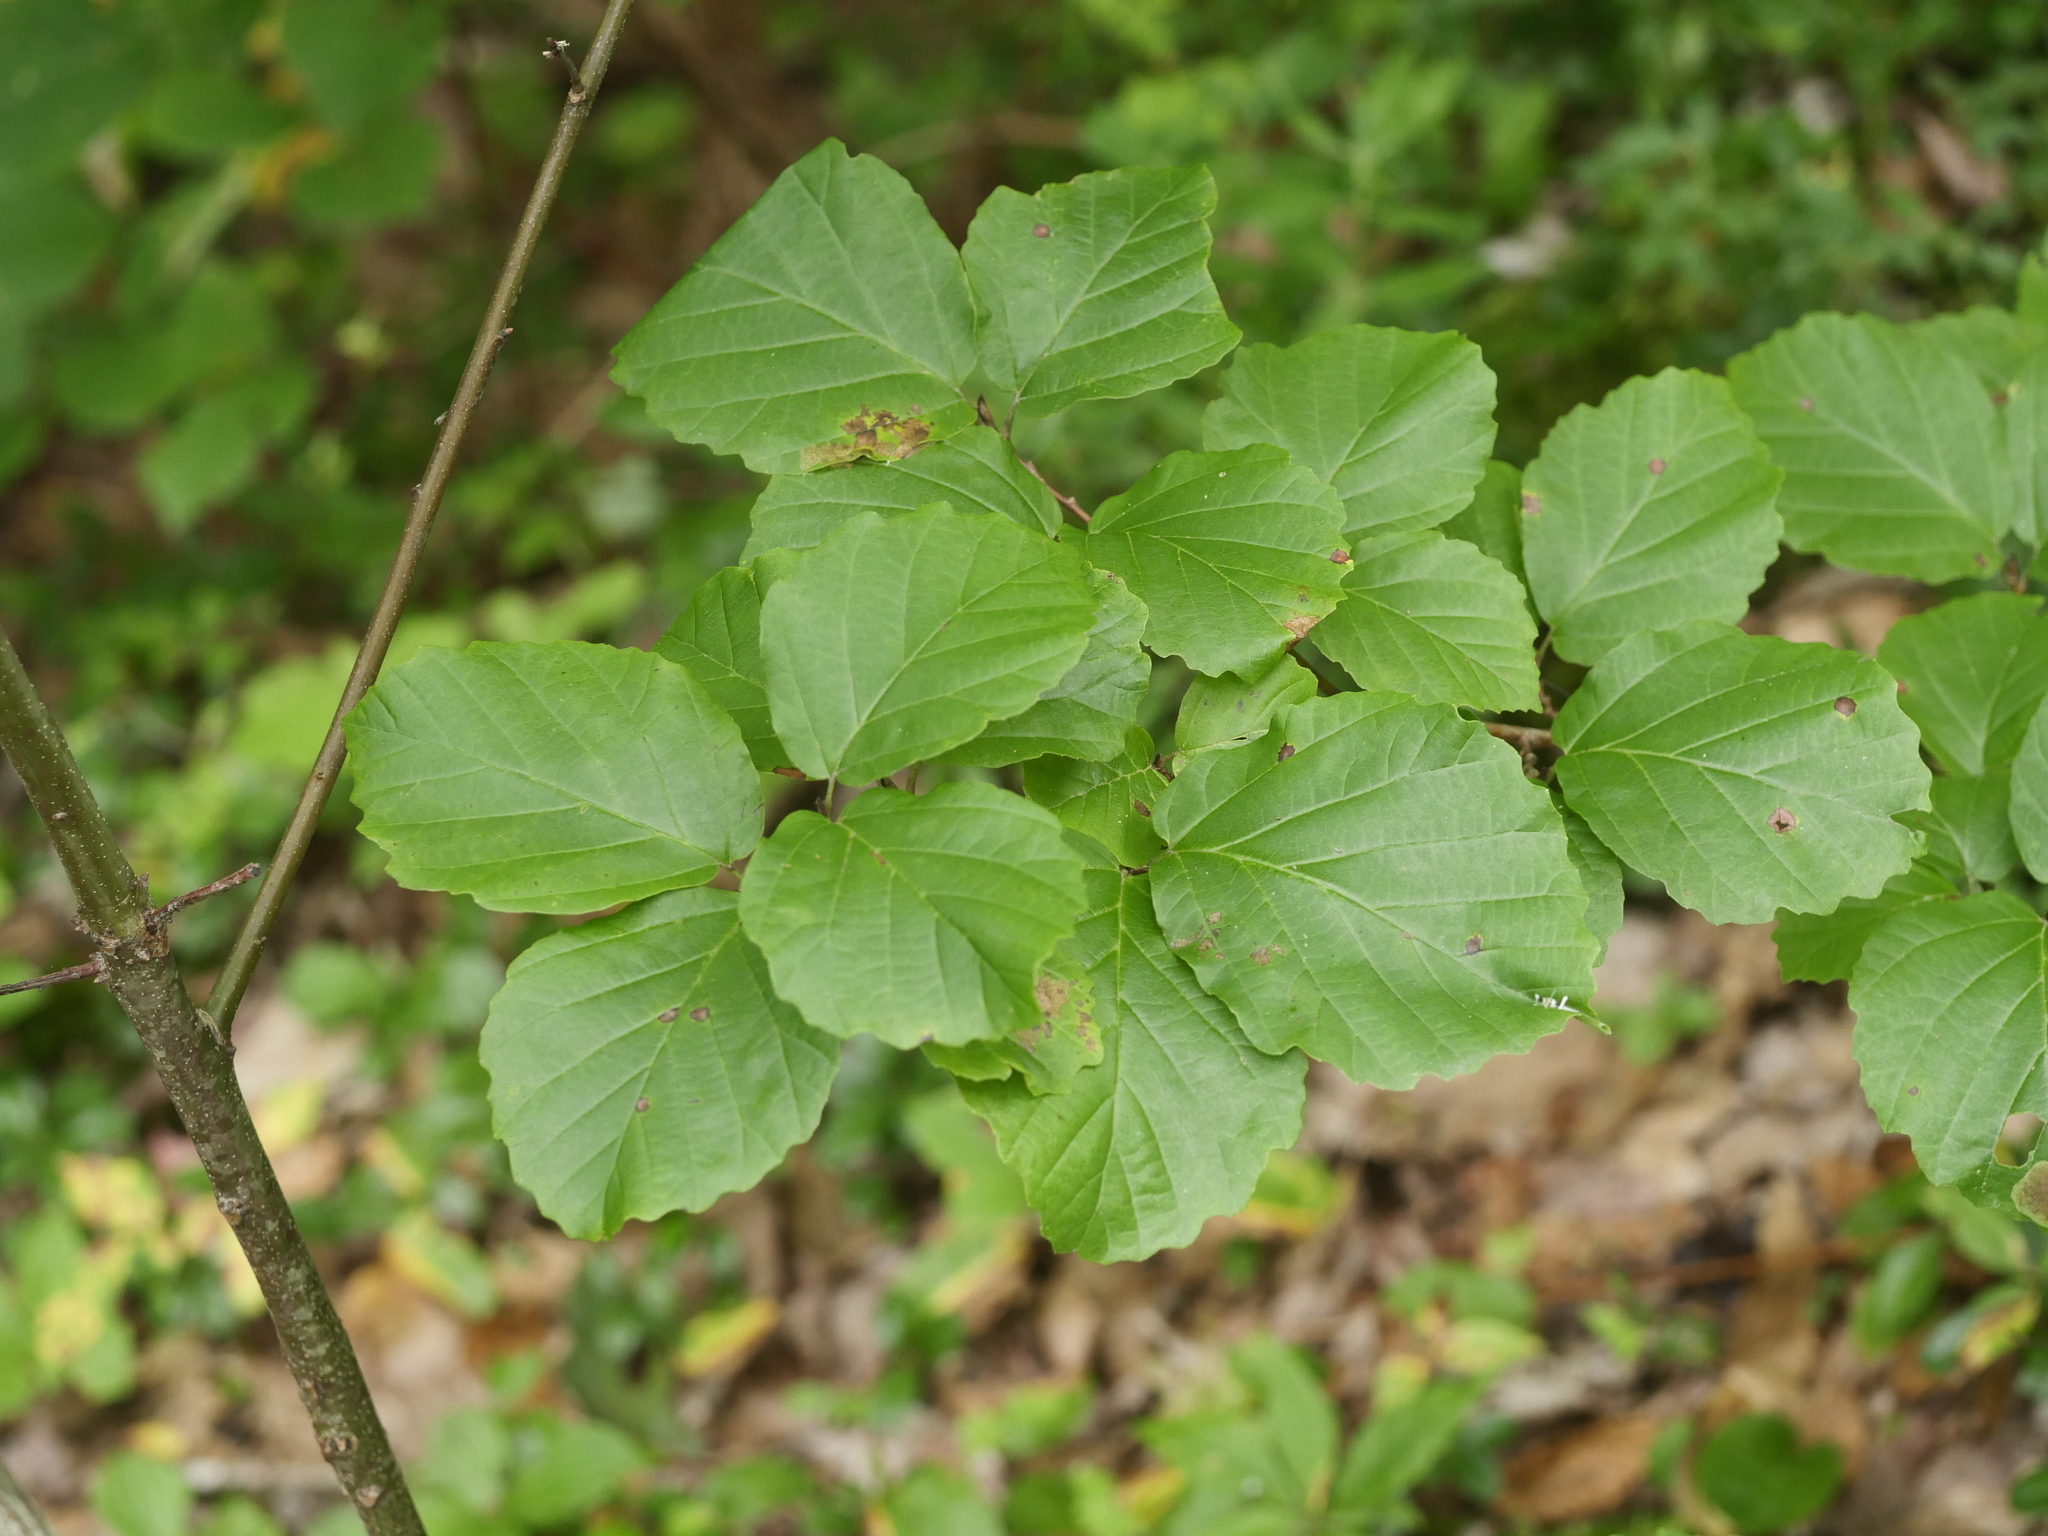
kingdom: Plantae
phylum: Tracheophyta
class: Magnoliopsida
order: Saxifragales
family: Hamamelidaceae
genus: Hamamelis
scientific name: Hamamelis virginiana
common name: Witch-hazel
